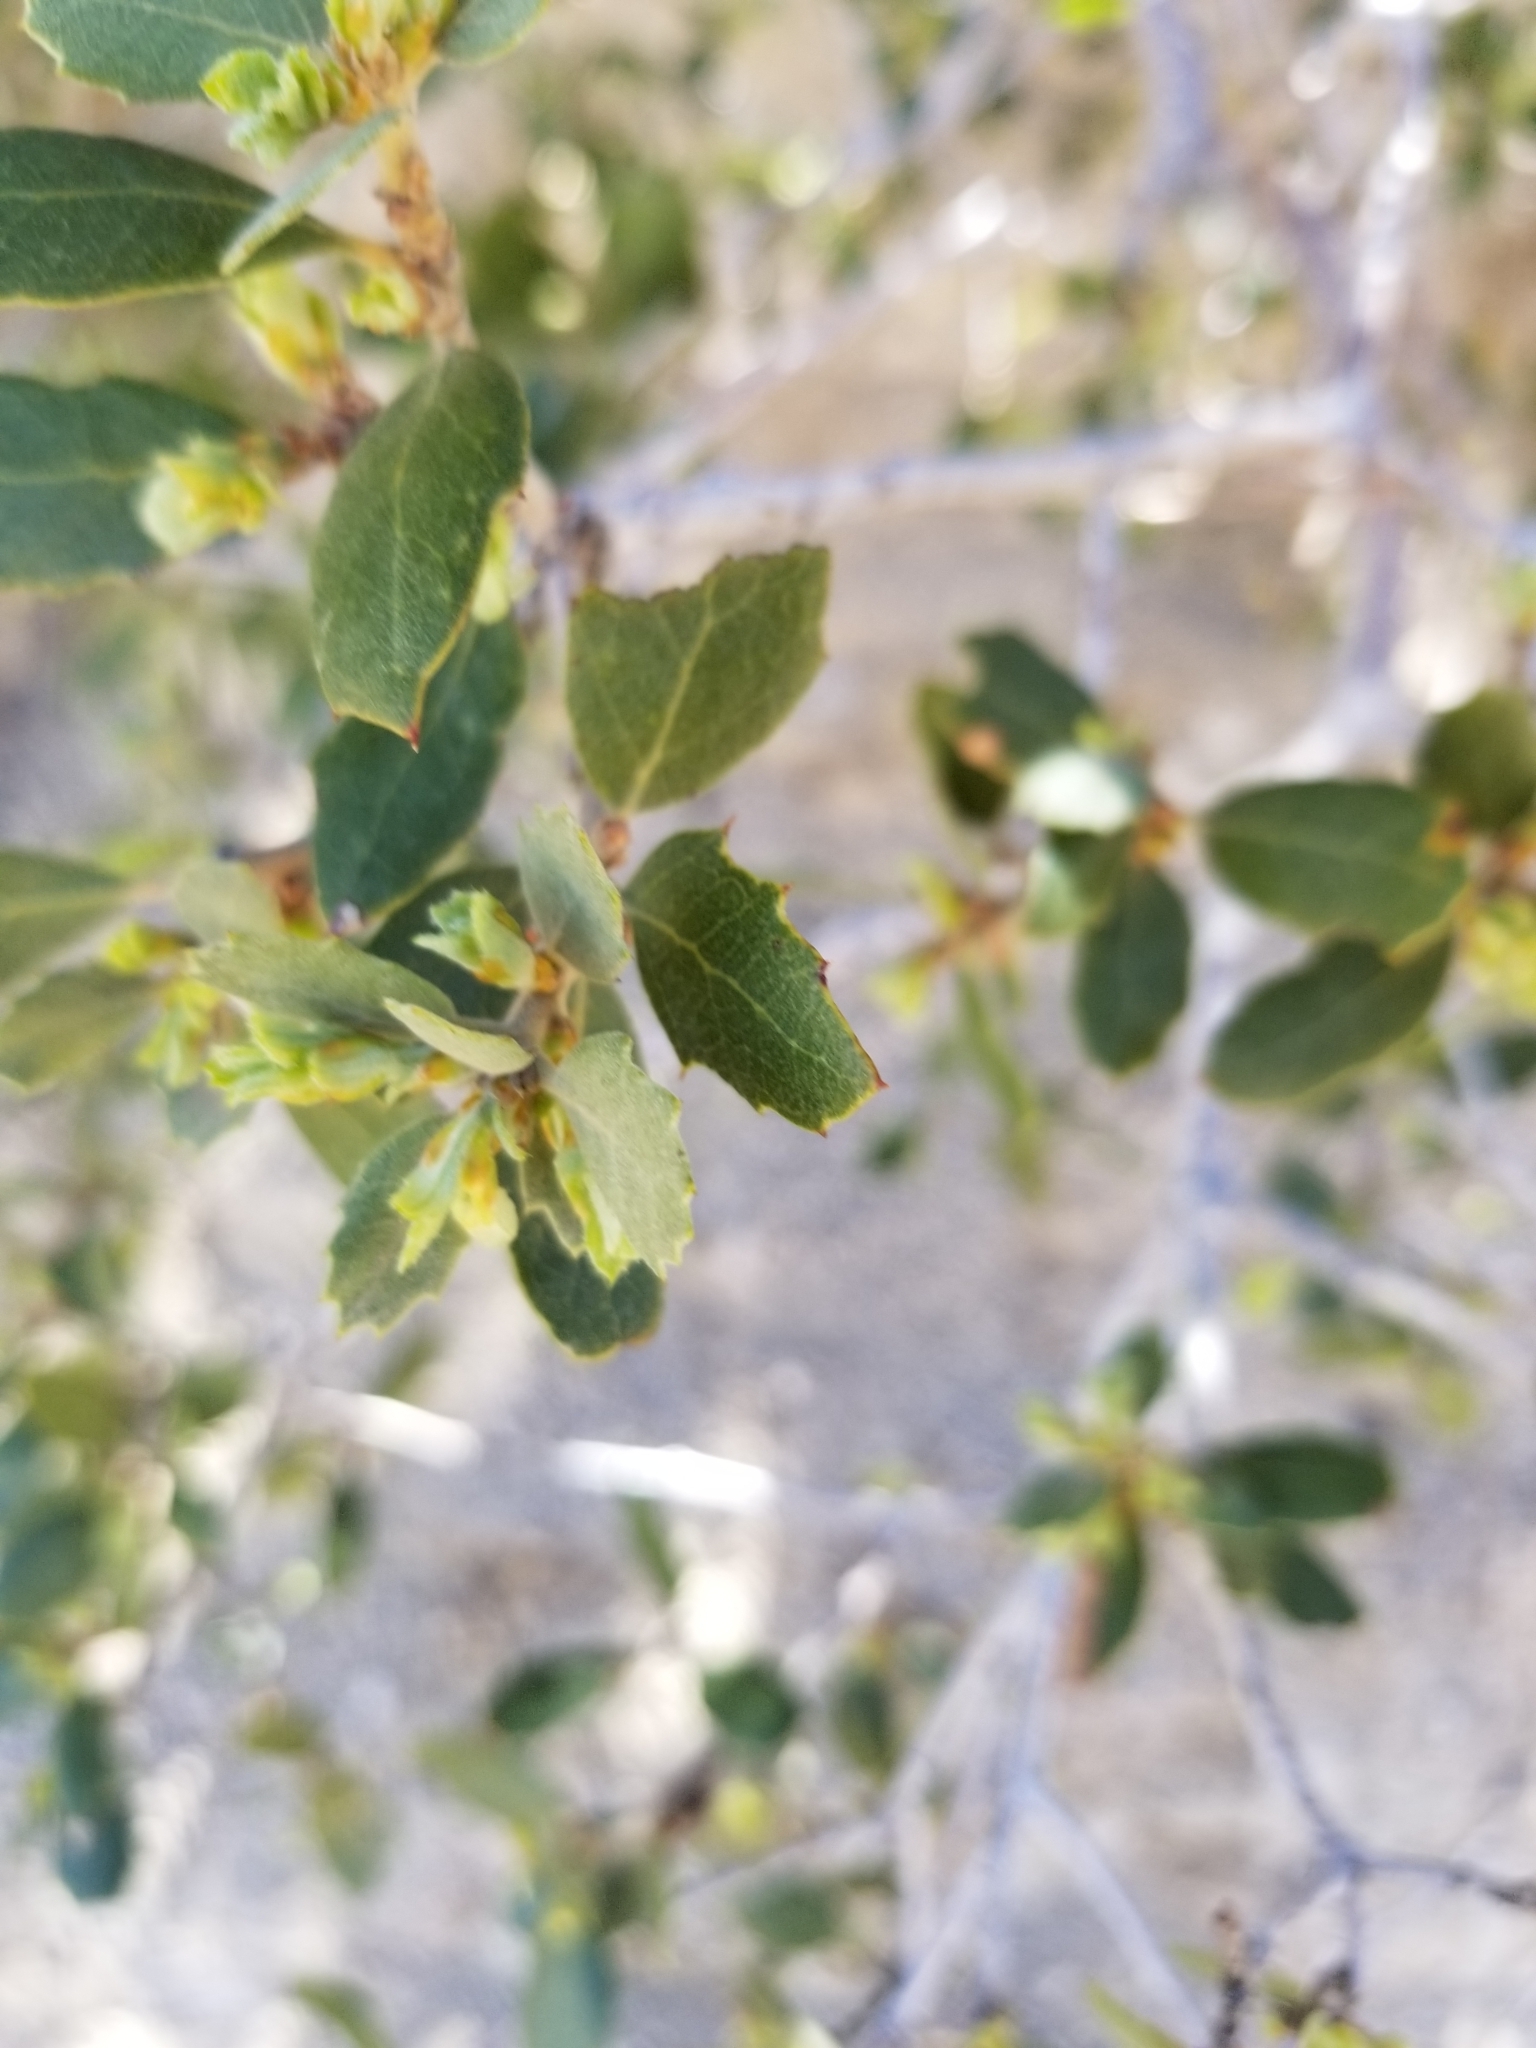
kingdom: Plantae
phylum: Tracheophyta
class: Magnoliopsida
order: Fagales
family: Fagaceae
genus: Quercus
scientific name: Quercus cornelius-mulleri
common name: Muller oak
